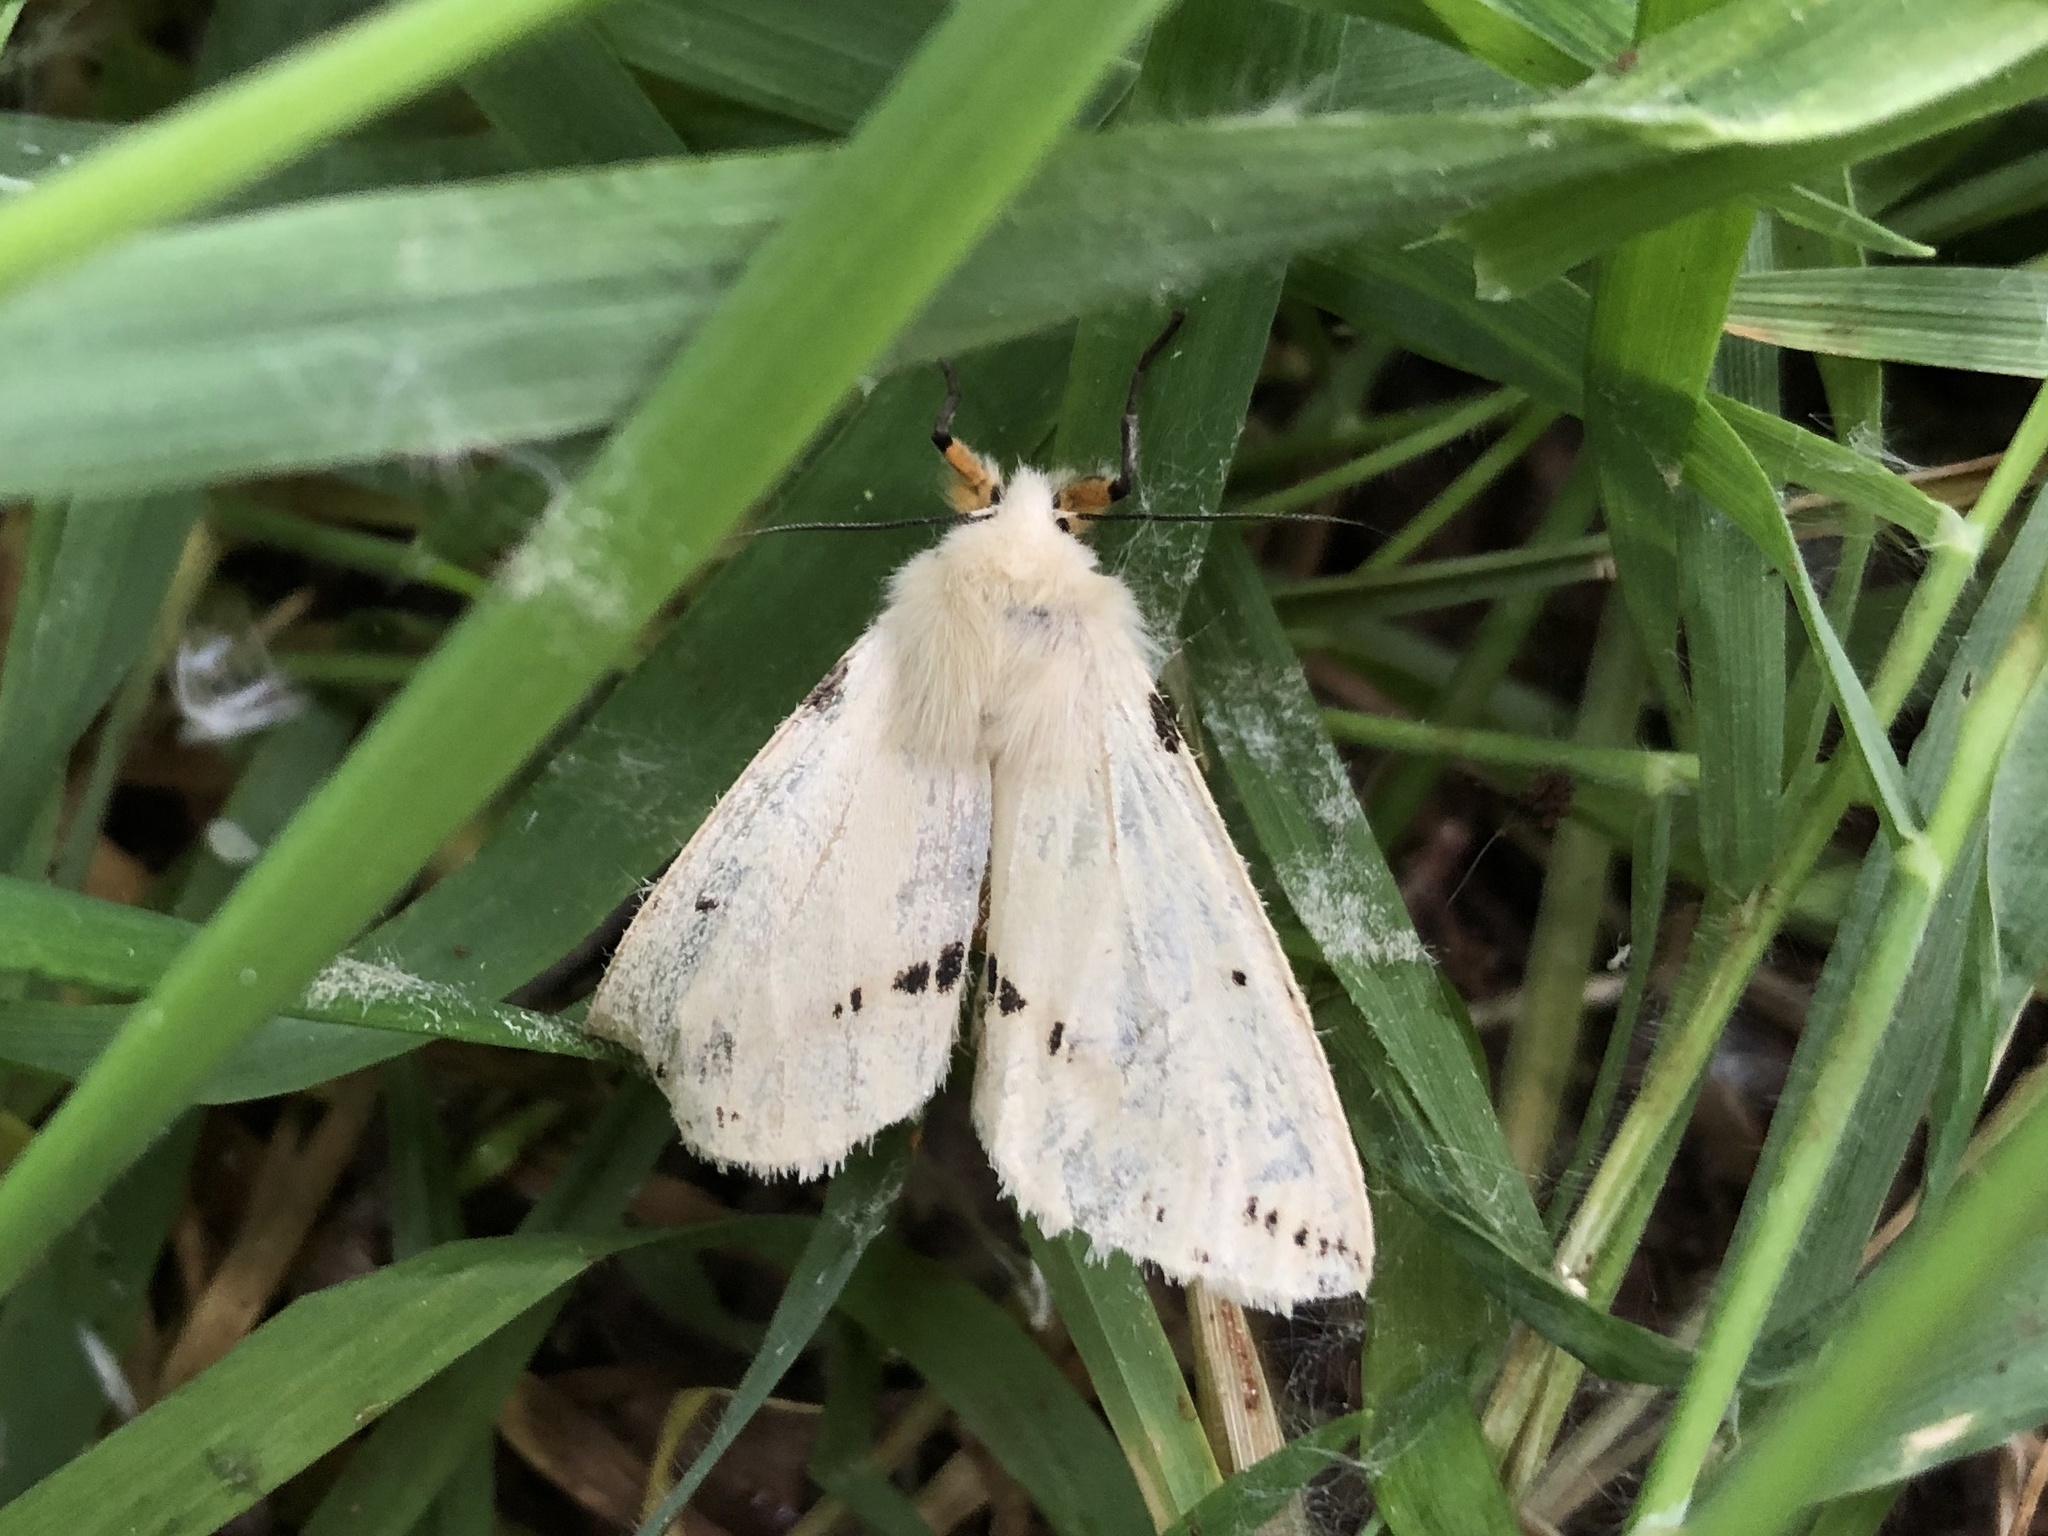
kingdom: Animalia
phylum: Arthropoda
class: Insecta
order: Lepidoptera
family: Erebidae
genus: Spilarctia
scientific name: Spilarctia lutea
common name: Buff ermine
